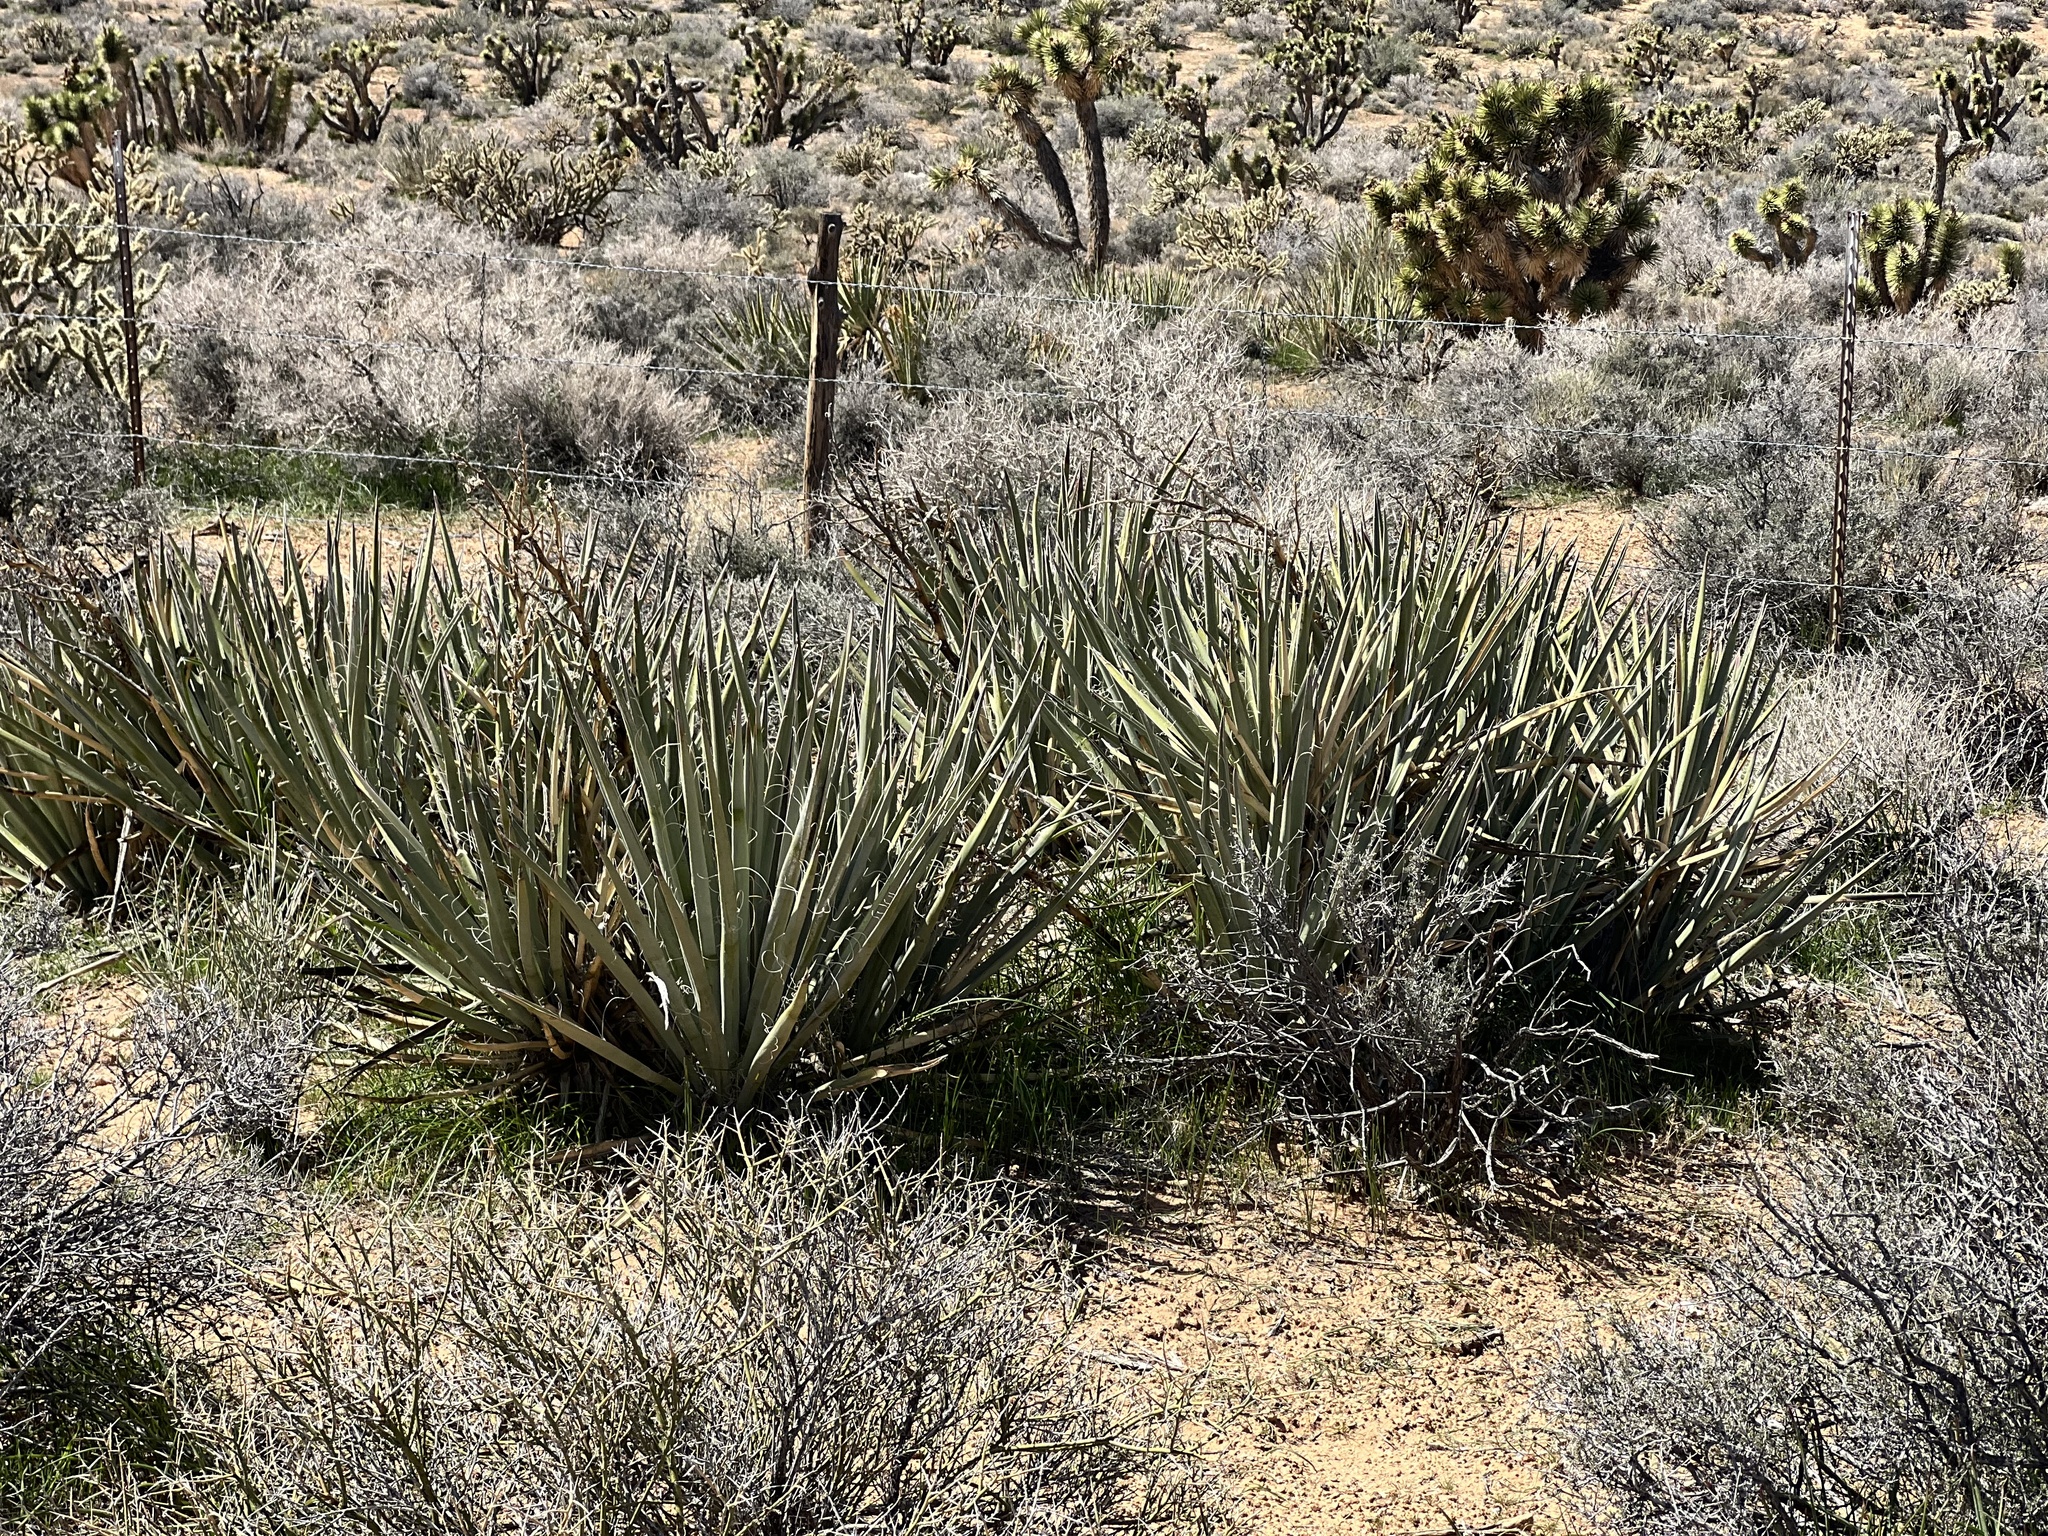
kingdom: Plantae
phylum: Tracheophyta
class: Liliopsida
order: Asparagales
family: Asparagaceae
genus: Yucca
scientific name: Yucca baccata
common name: Banana yucca
